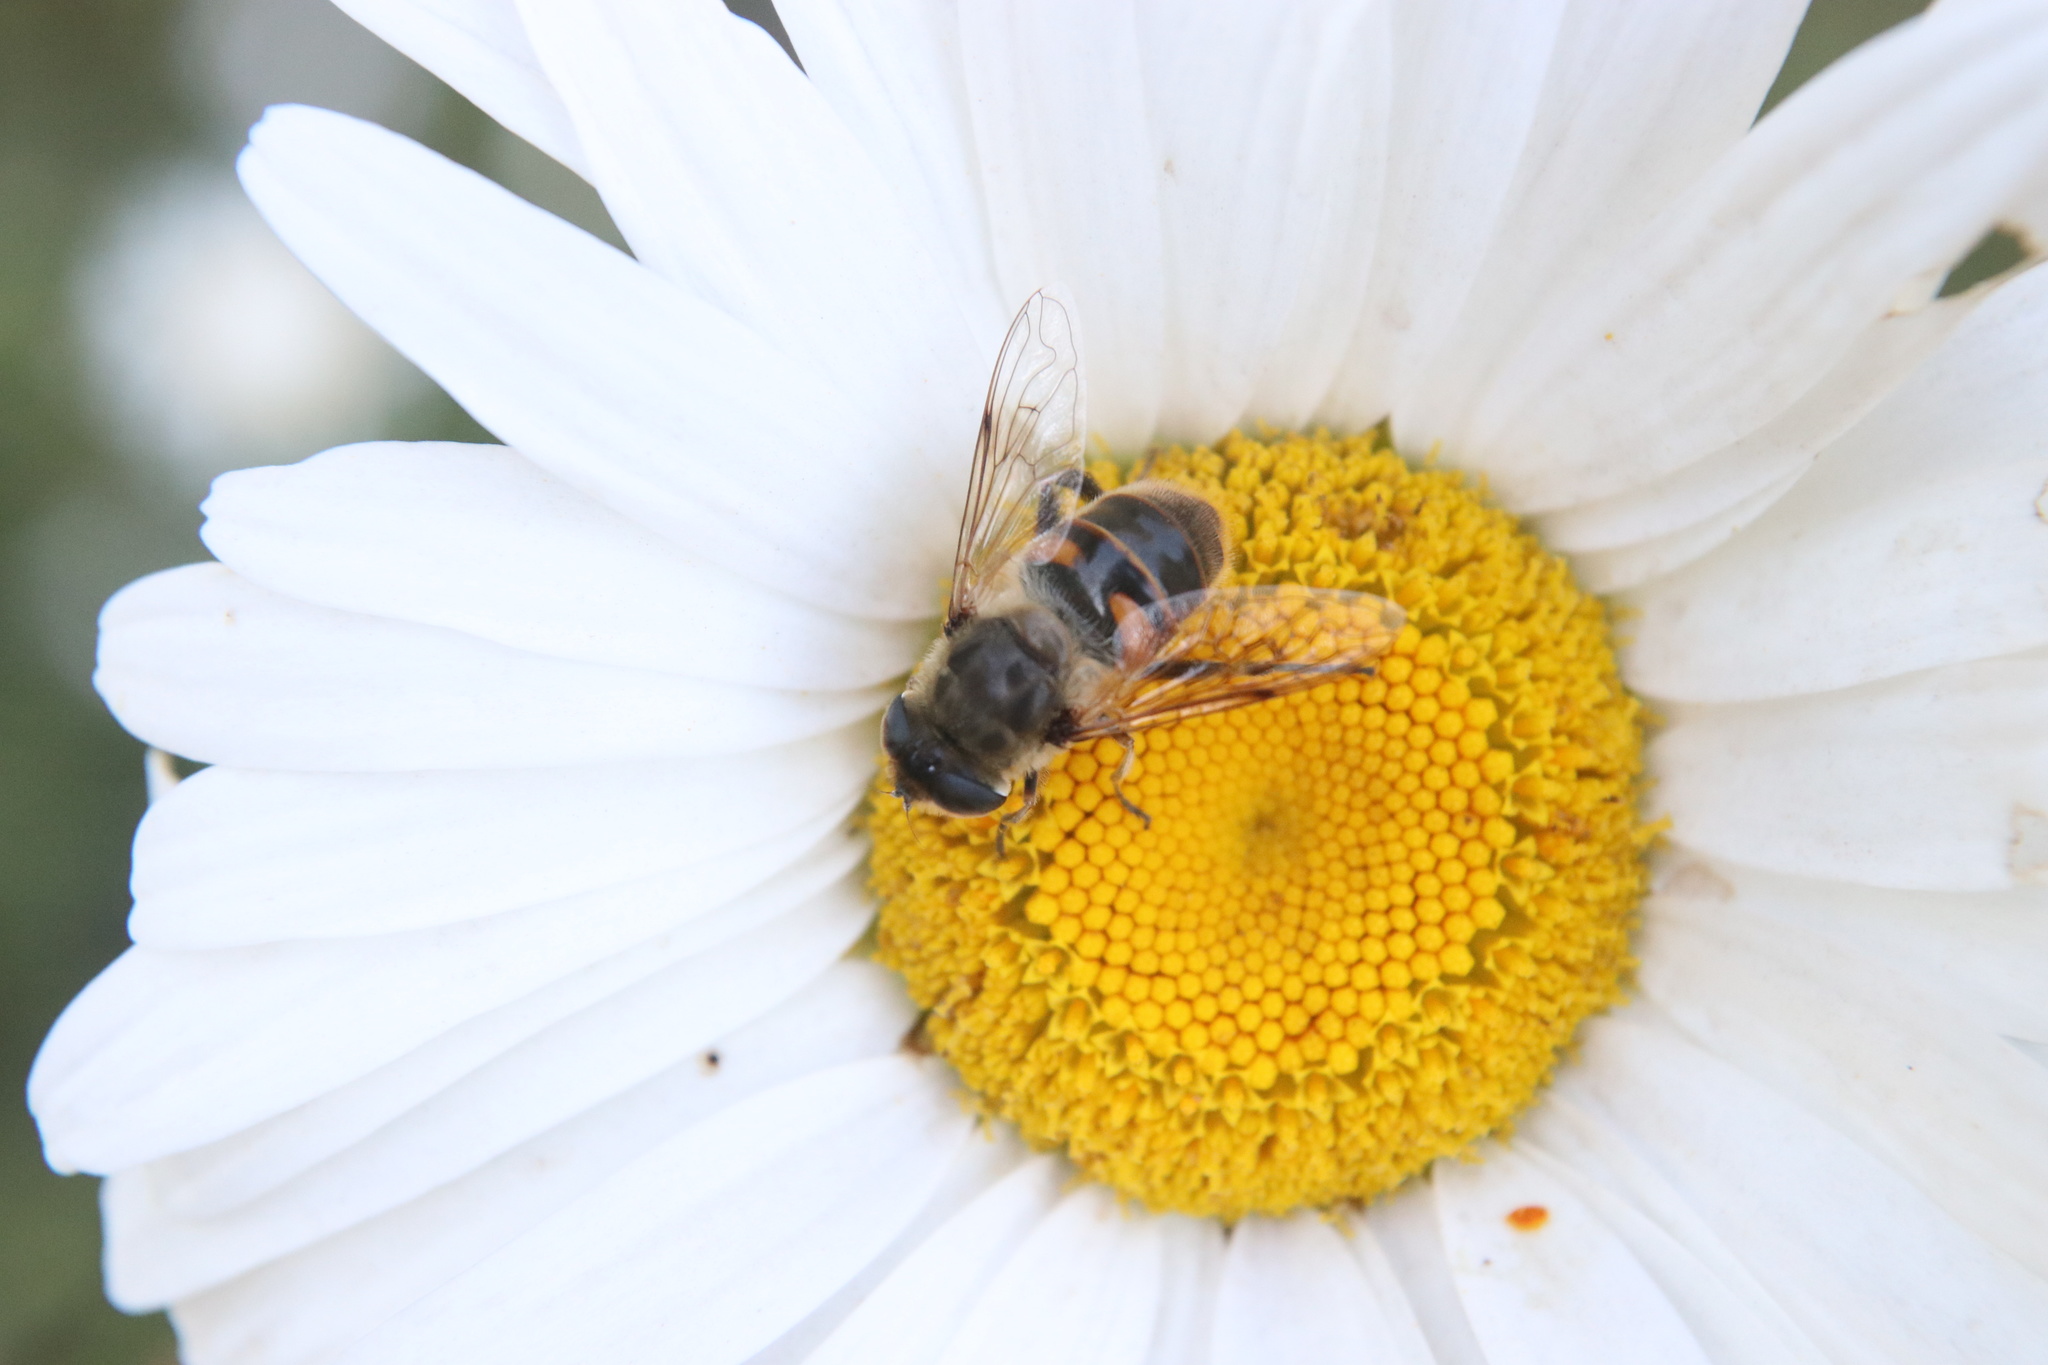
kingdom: Animalia
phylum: Arthropoda
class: Insecta
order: Diptera
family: Syrphidae
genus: Eristalis
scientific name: Eristalis tenax
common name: Drone fly
